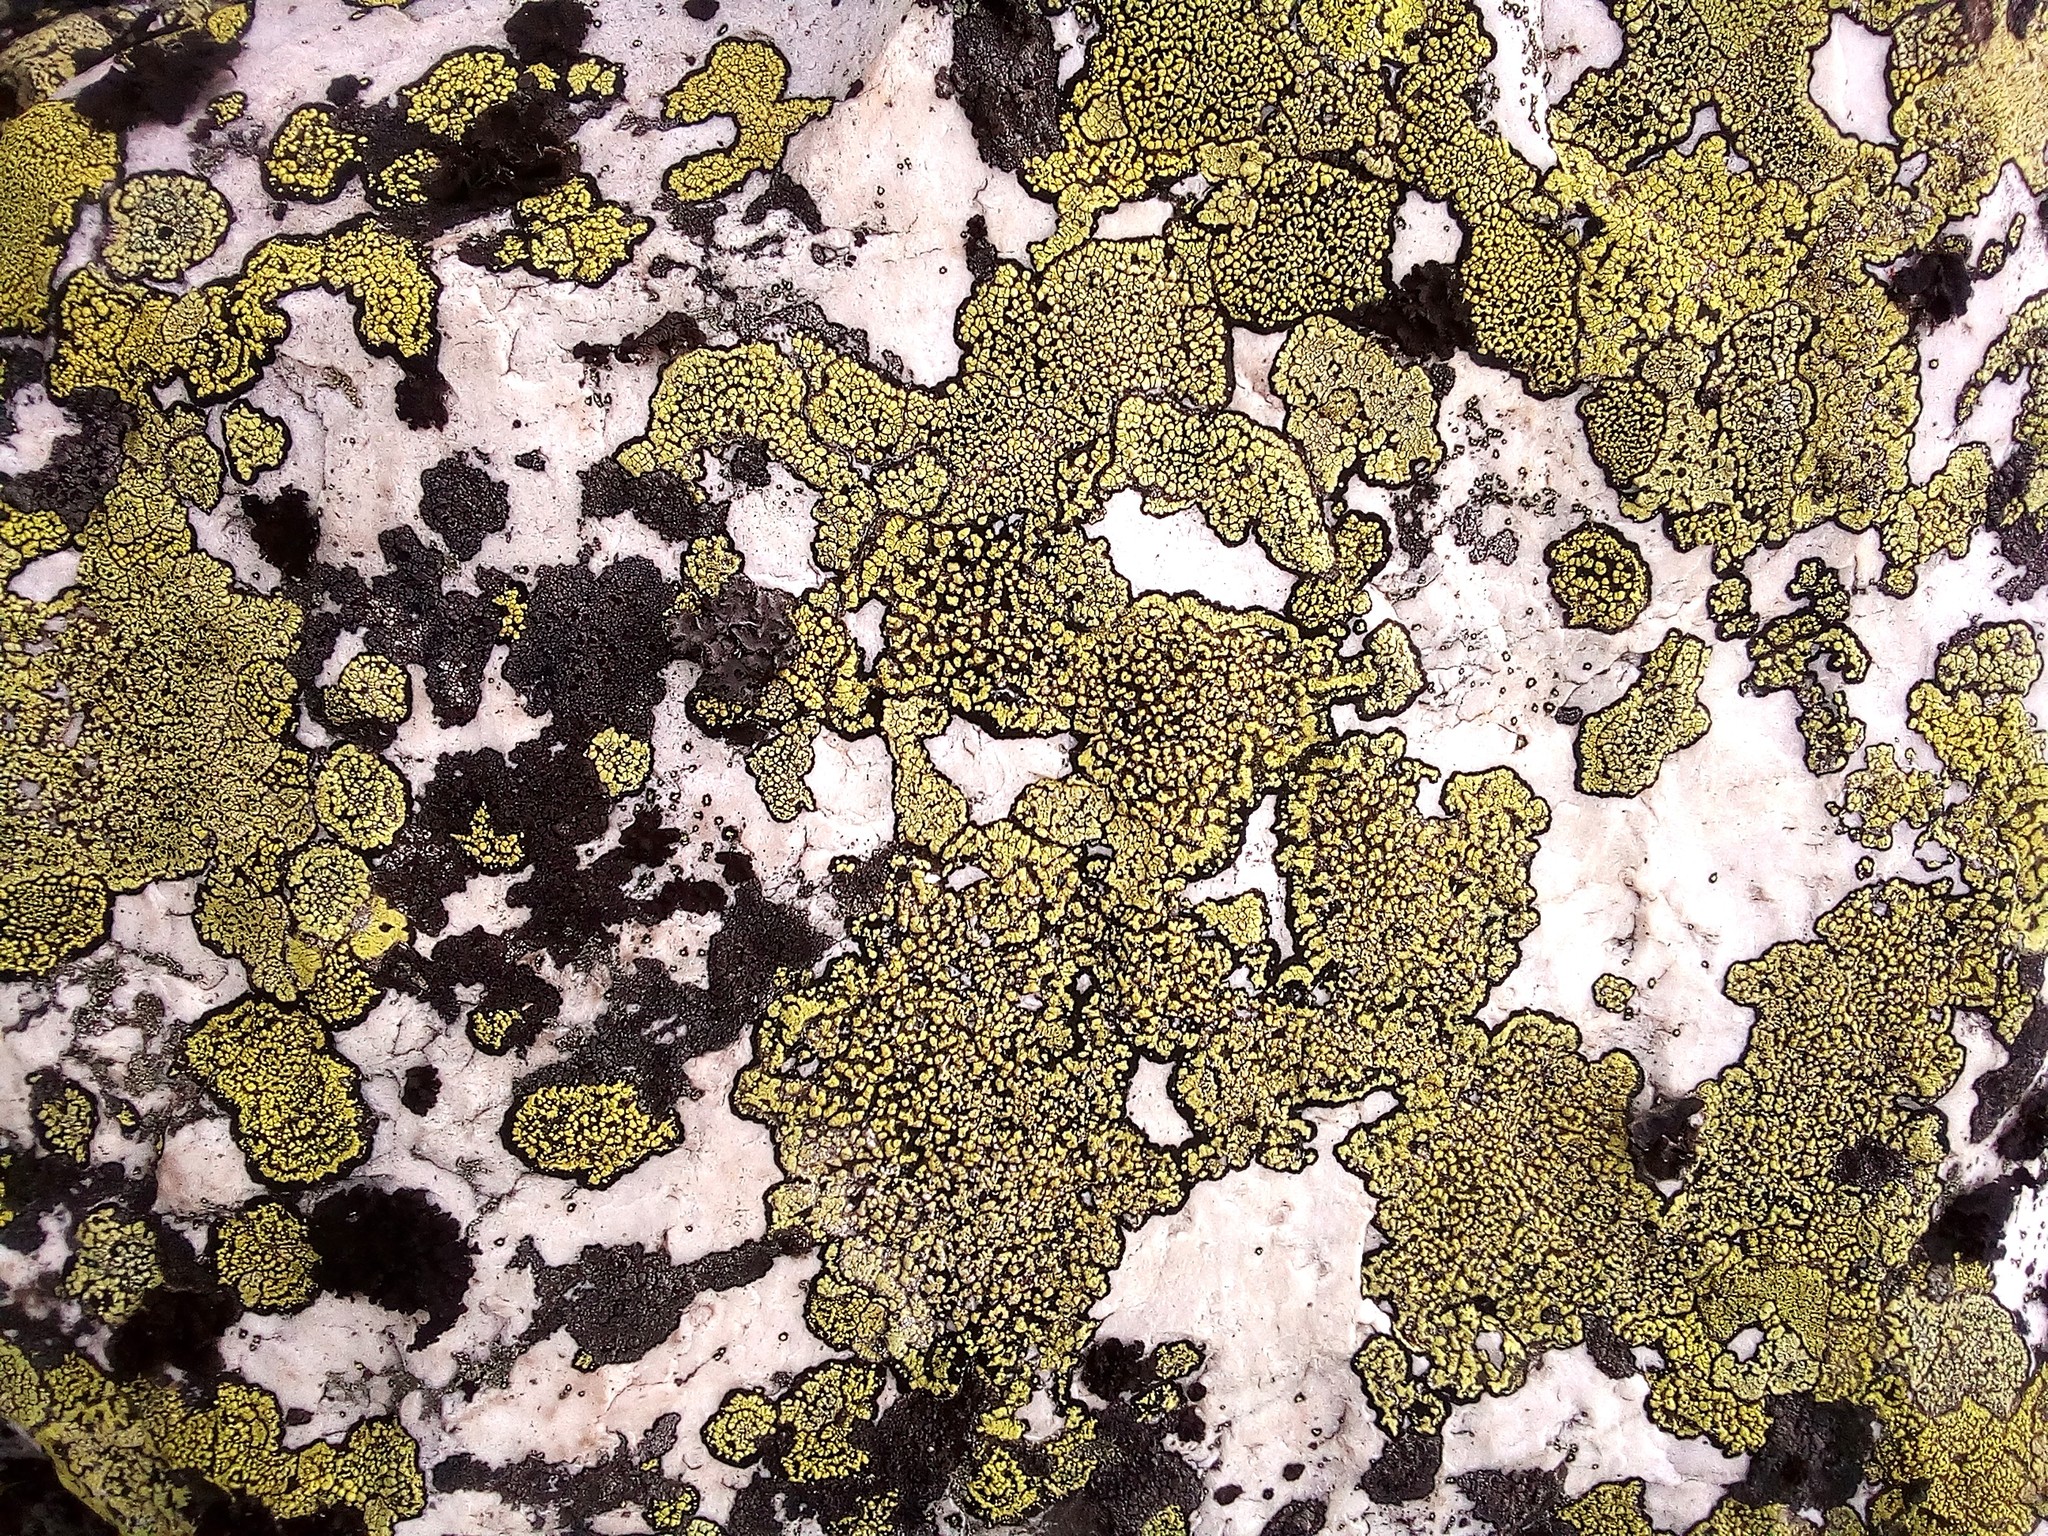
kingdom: Fungi
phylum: Ascomycota
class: Lecanoromycetes
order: Rhizocarpales
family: Rhizocarpaceae
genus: Rhizocarpon
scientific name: Rhizocarpon lecanorinum
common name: Crescent map lichen
